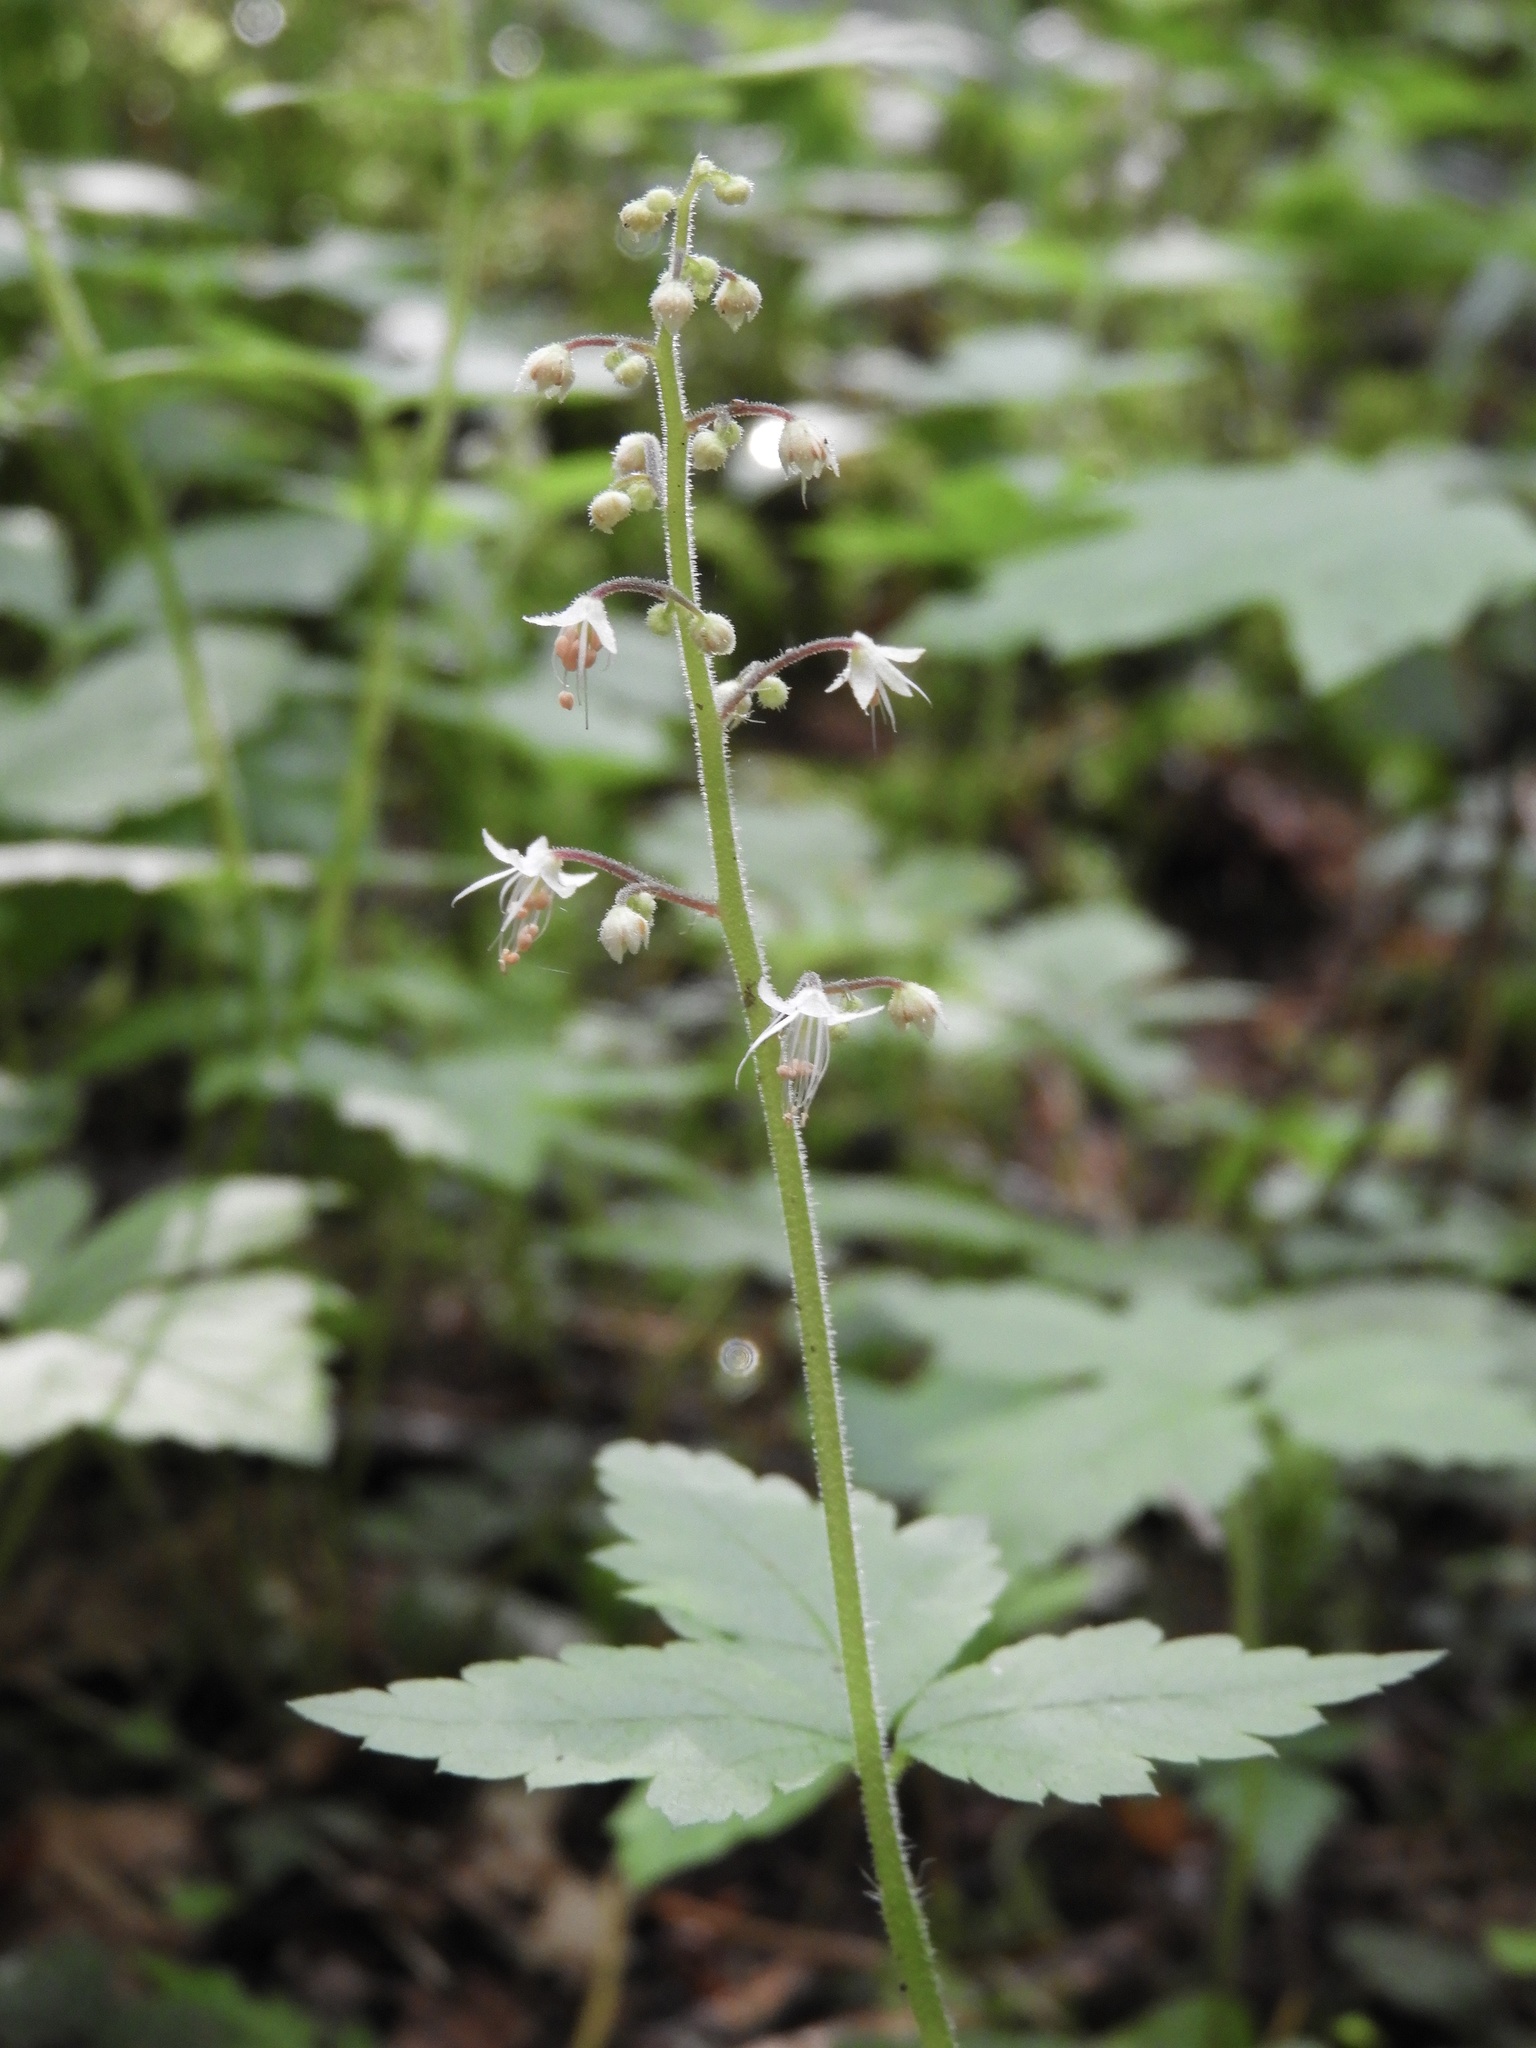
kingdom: Plantae
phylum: Tracheophyta
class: Magnoliopsida
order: Saxifragales
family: Saxifragaceae
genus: Tiarella
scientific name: Tiarella trifoliata
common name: Sugar-scoop
